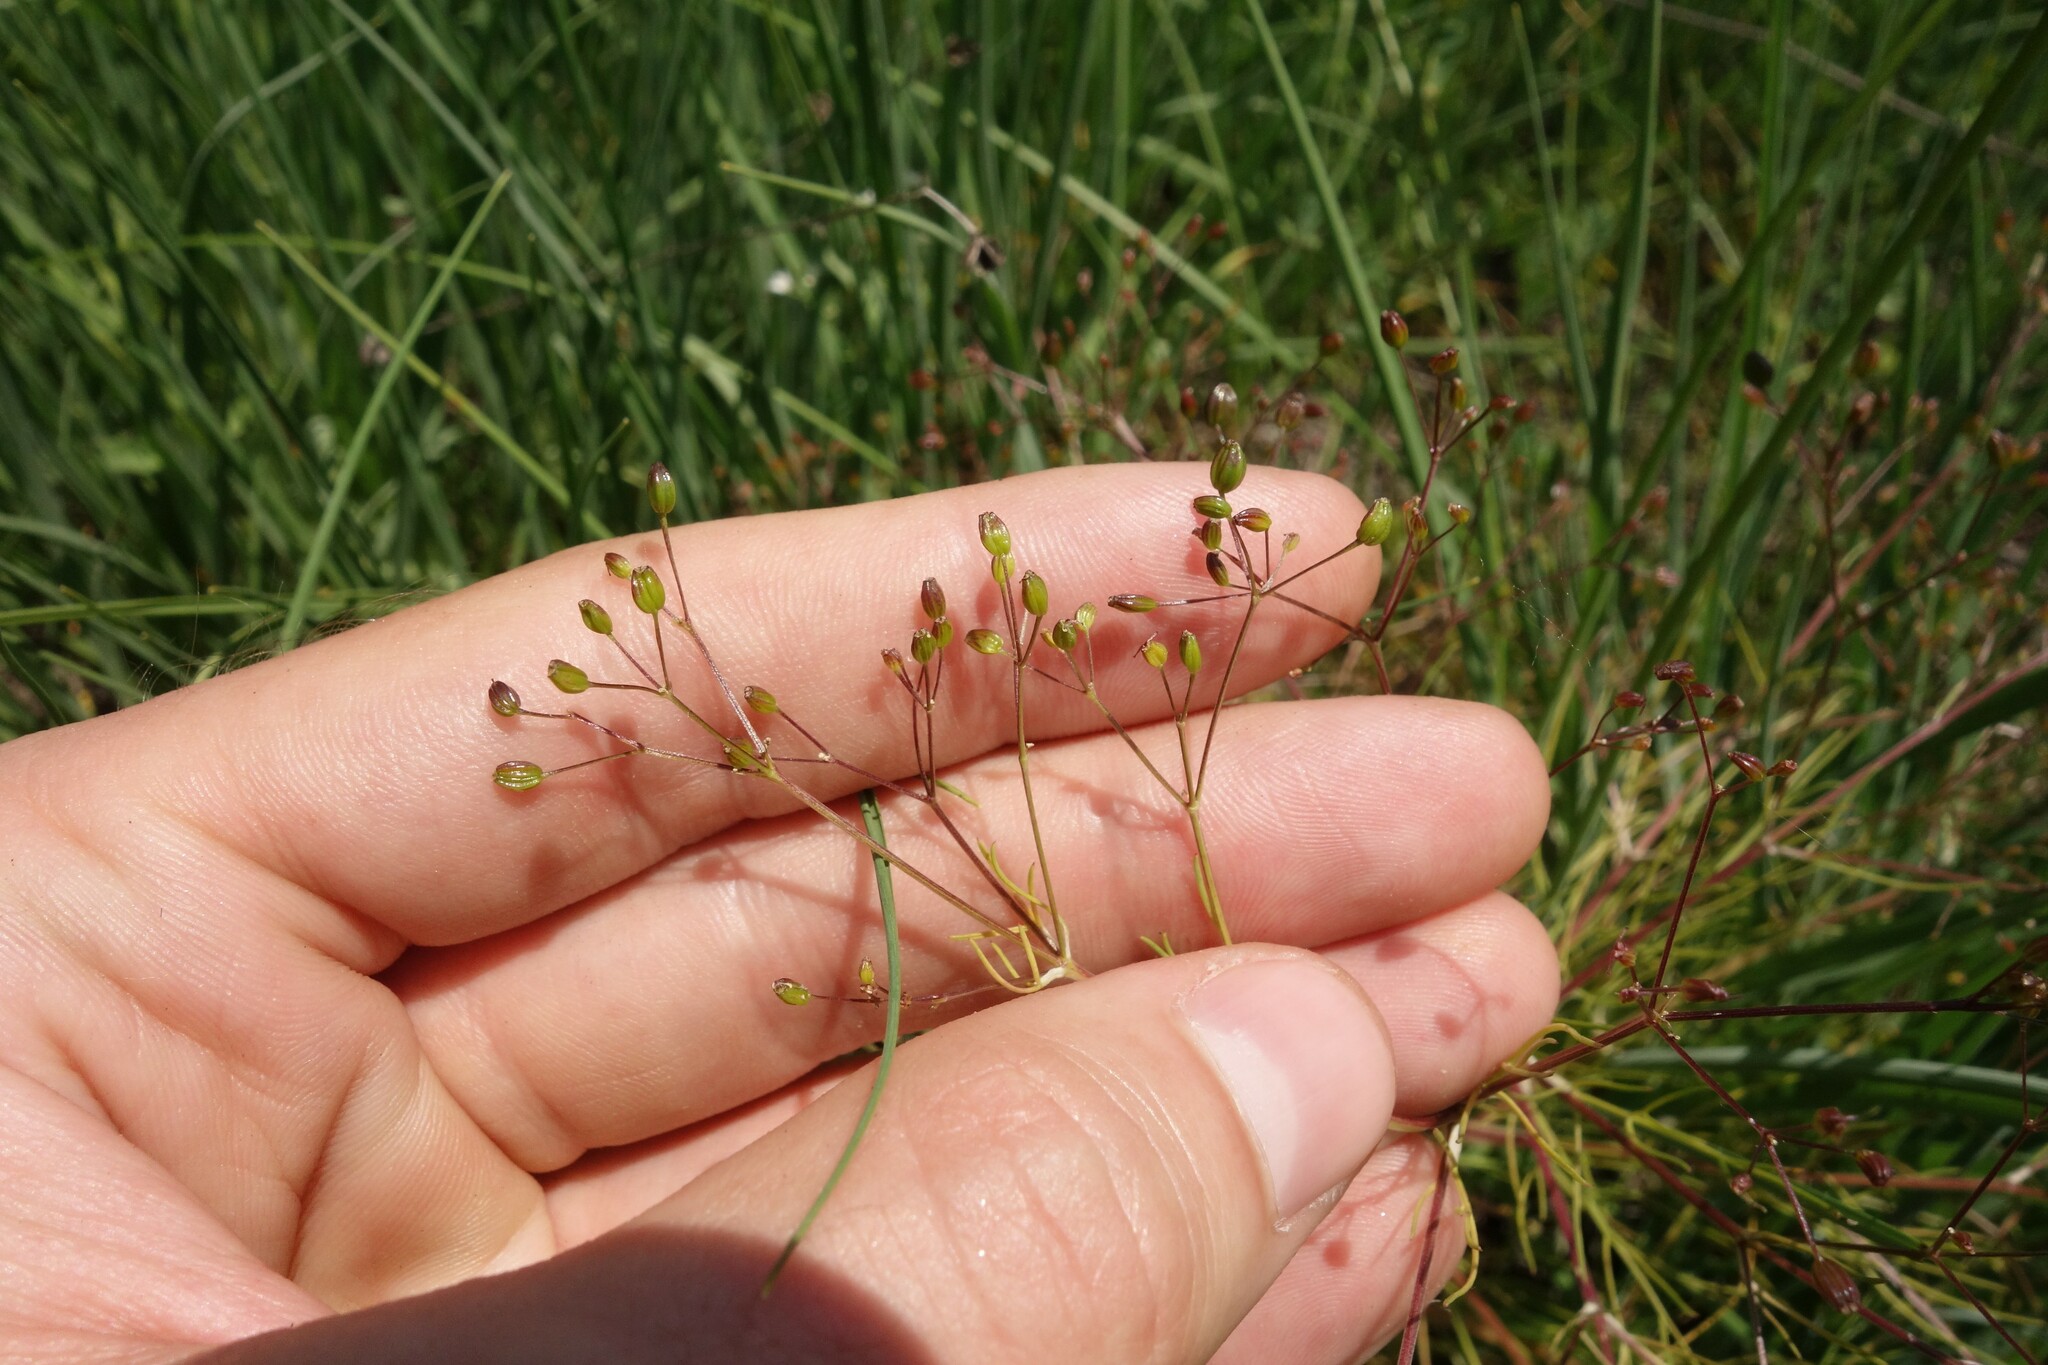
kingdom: Plantae
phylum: Tracheophyta
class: Magnoliopsida
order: Apiales
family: Apiaceae
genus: Trinia
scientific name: Trinia multicaulis
